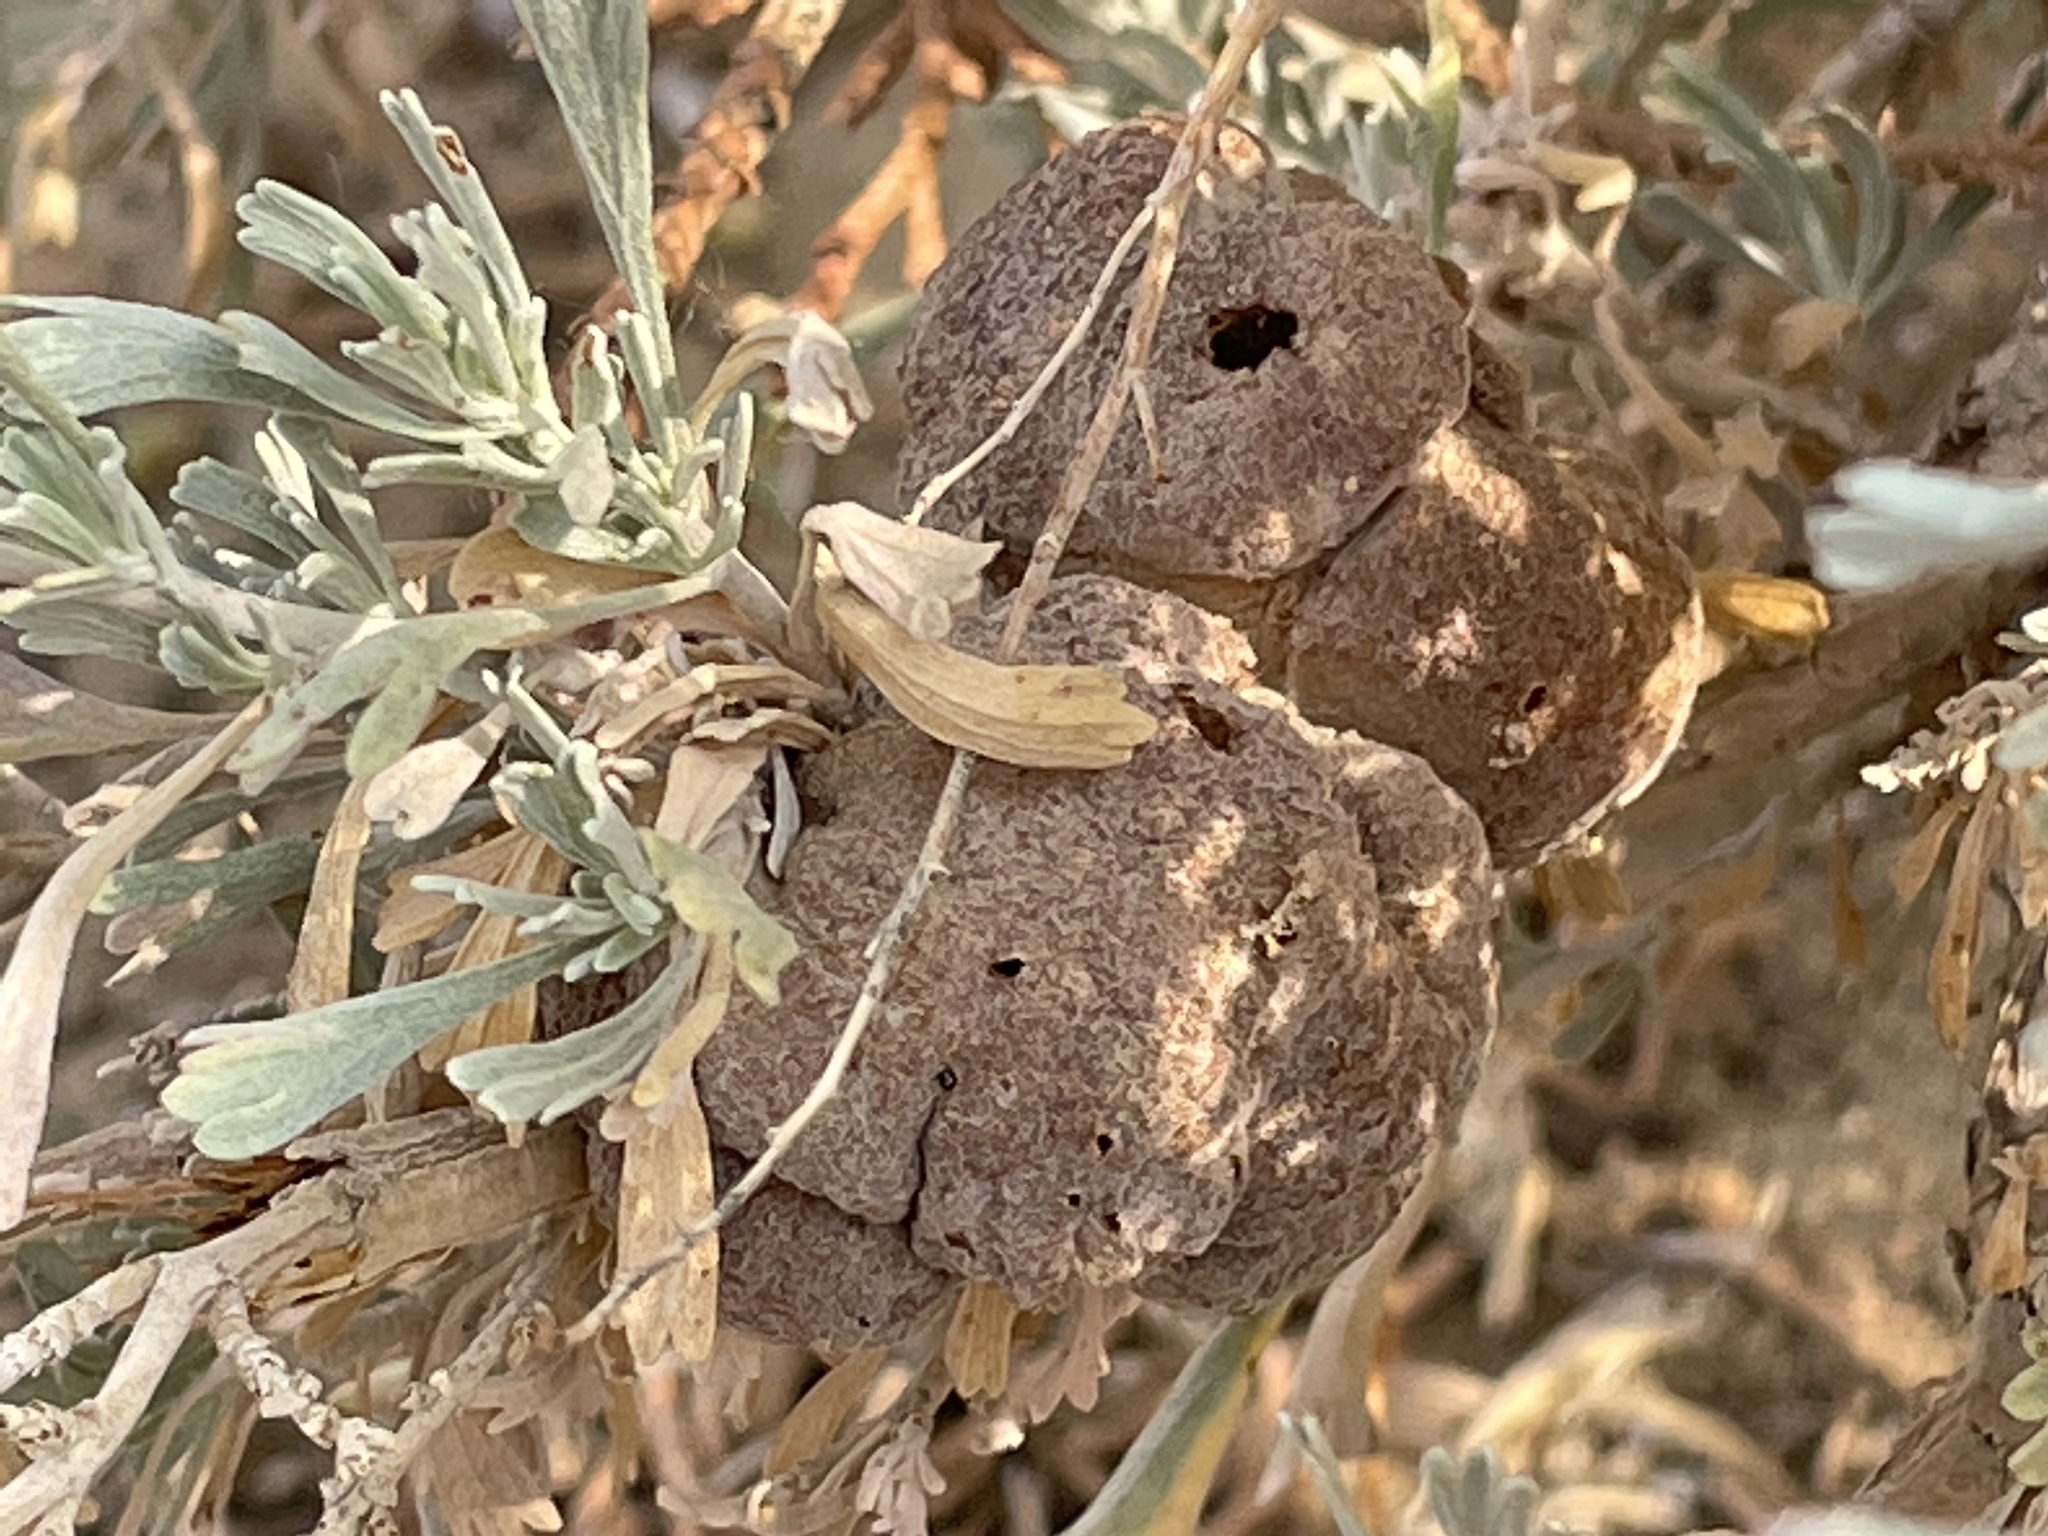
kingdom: Animalia
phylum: Arthropoda
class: Insecta
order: Diptera
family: Cecidomyiidae
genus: Rhopalomyia
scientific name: Rhopalomyia pomum
